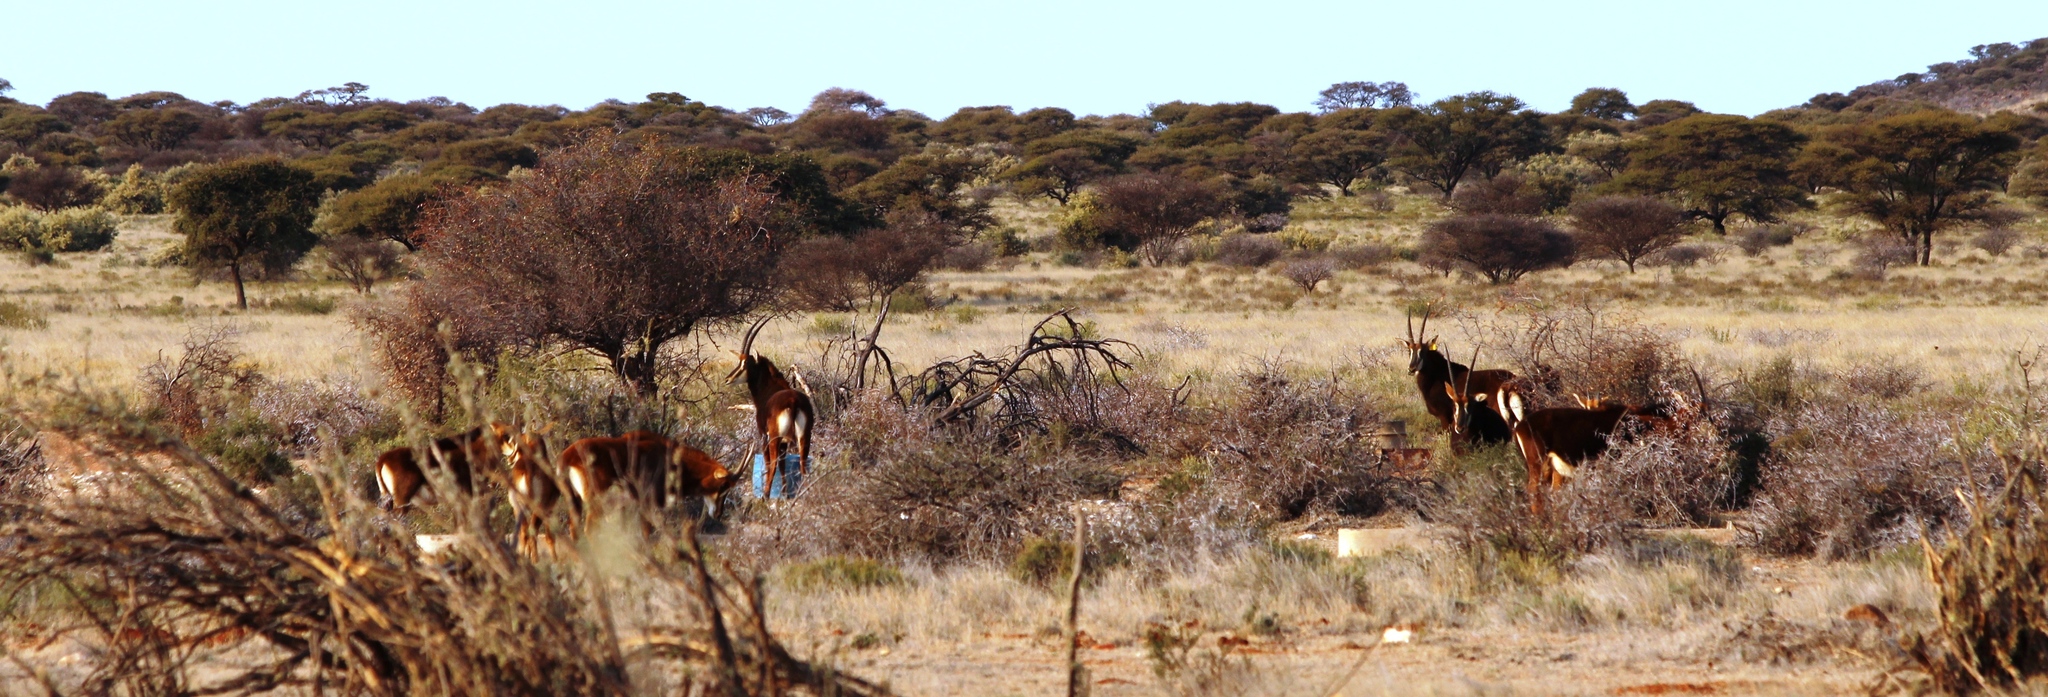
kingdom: Animalia
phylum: Chordata
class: Mammalia
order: Artiodactyla
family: Bovidae
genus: Hippotragus
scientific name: Hippotragus niger
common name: Sable antelope
